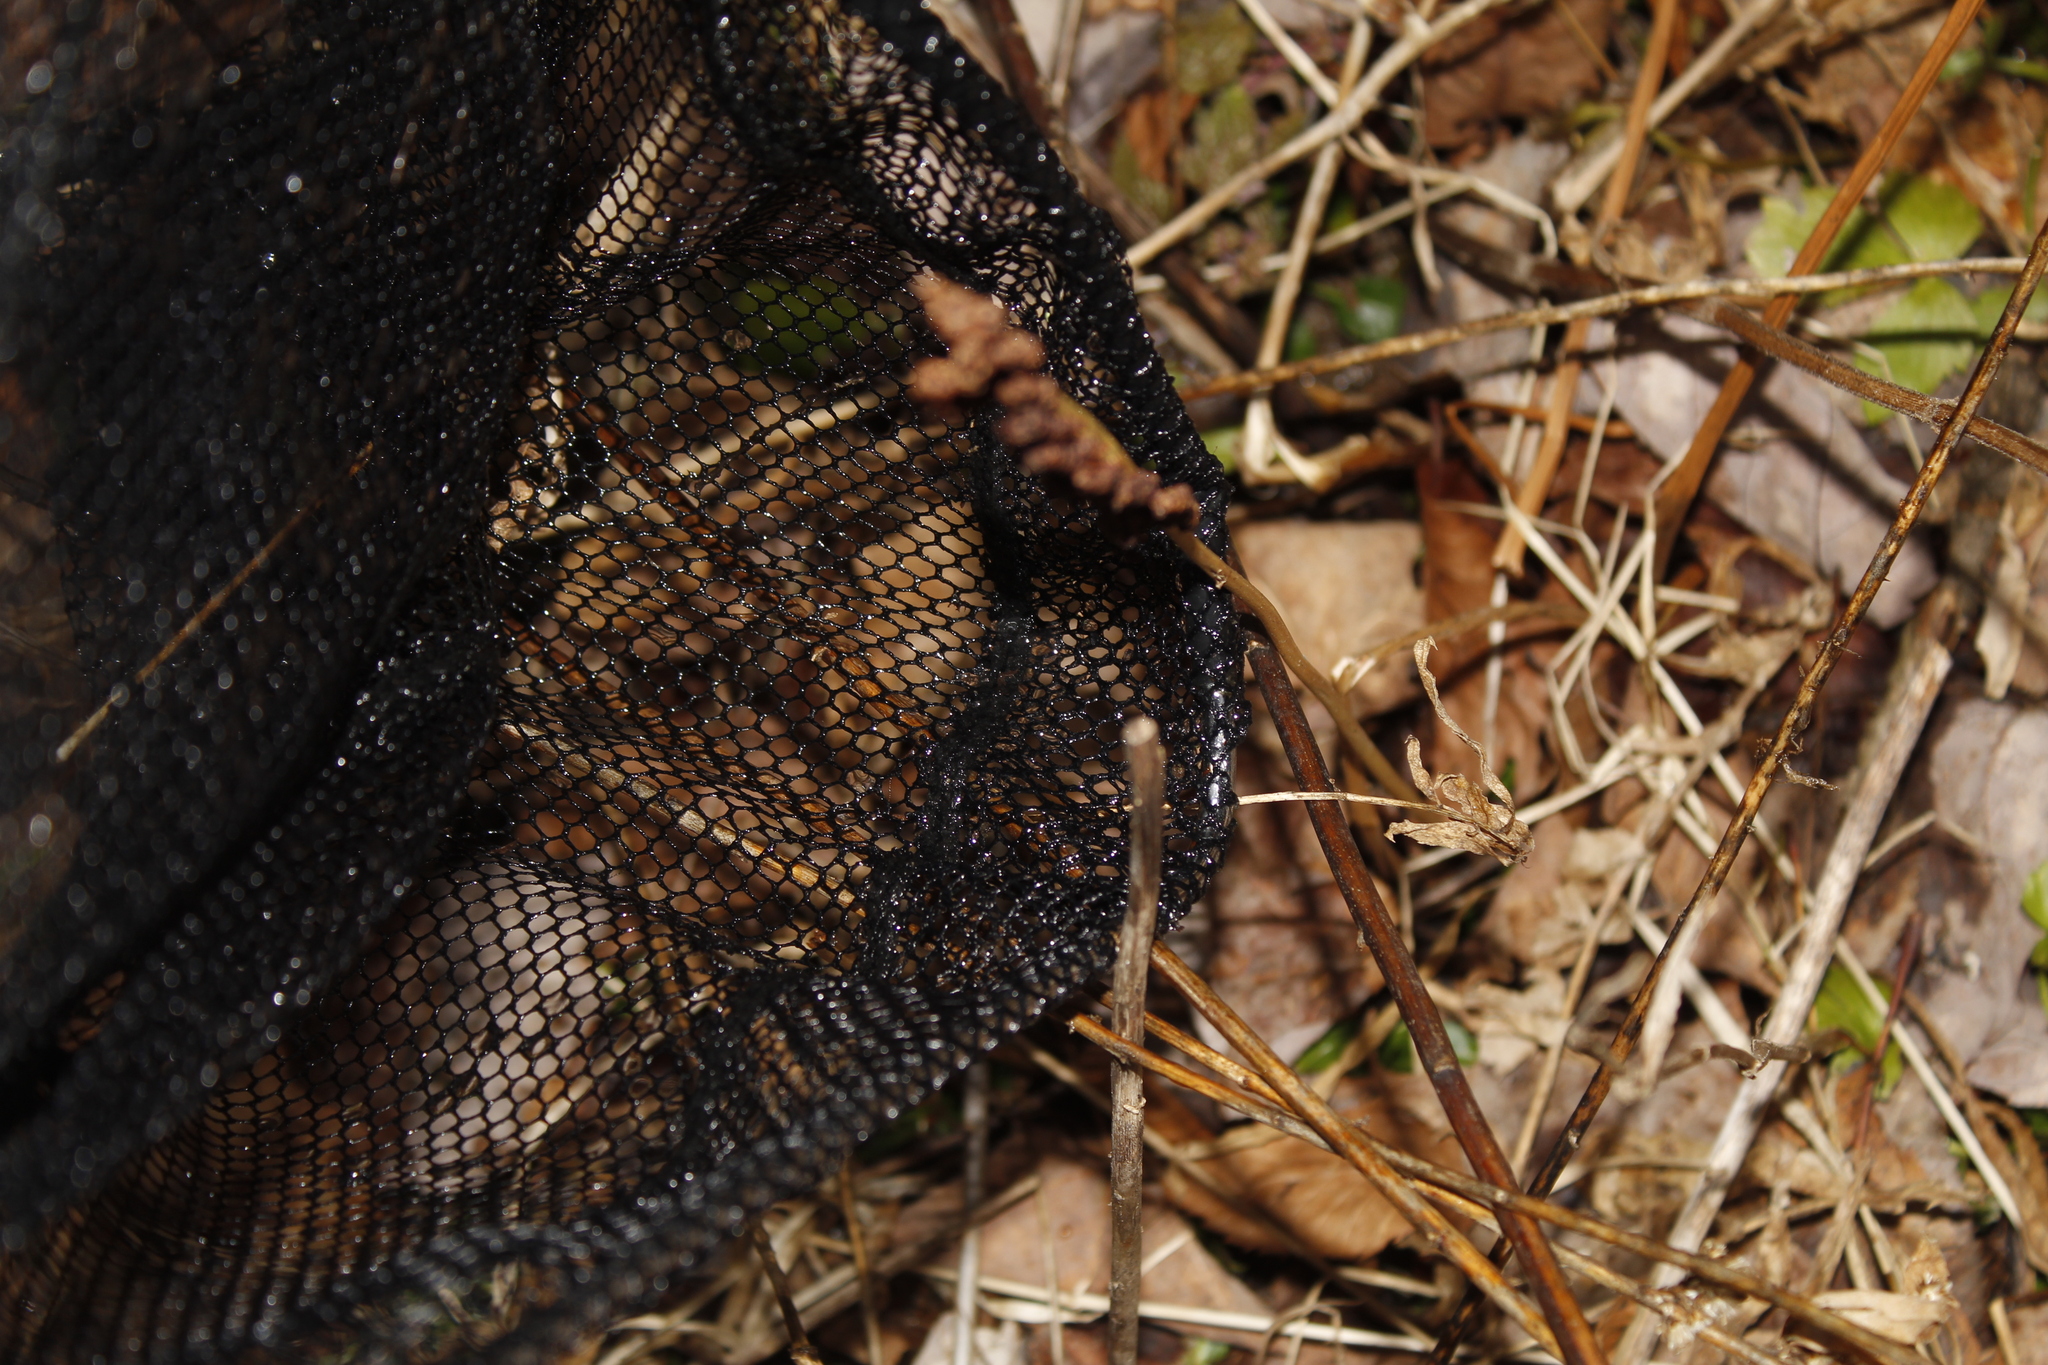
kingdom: Plantae
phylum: Tracheophyta
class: Polypodiopsida
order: Polypodiales
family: Onocleaceae
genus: Onoclea
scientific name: Onoclea sensibilis
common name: Sensitive fern
